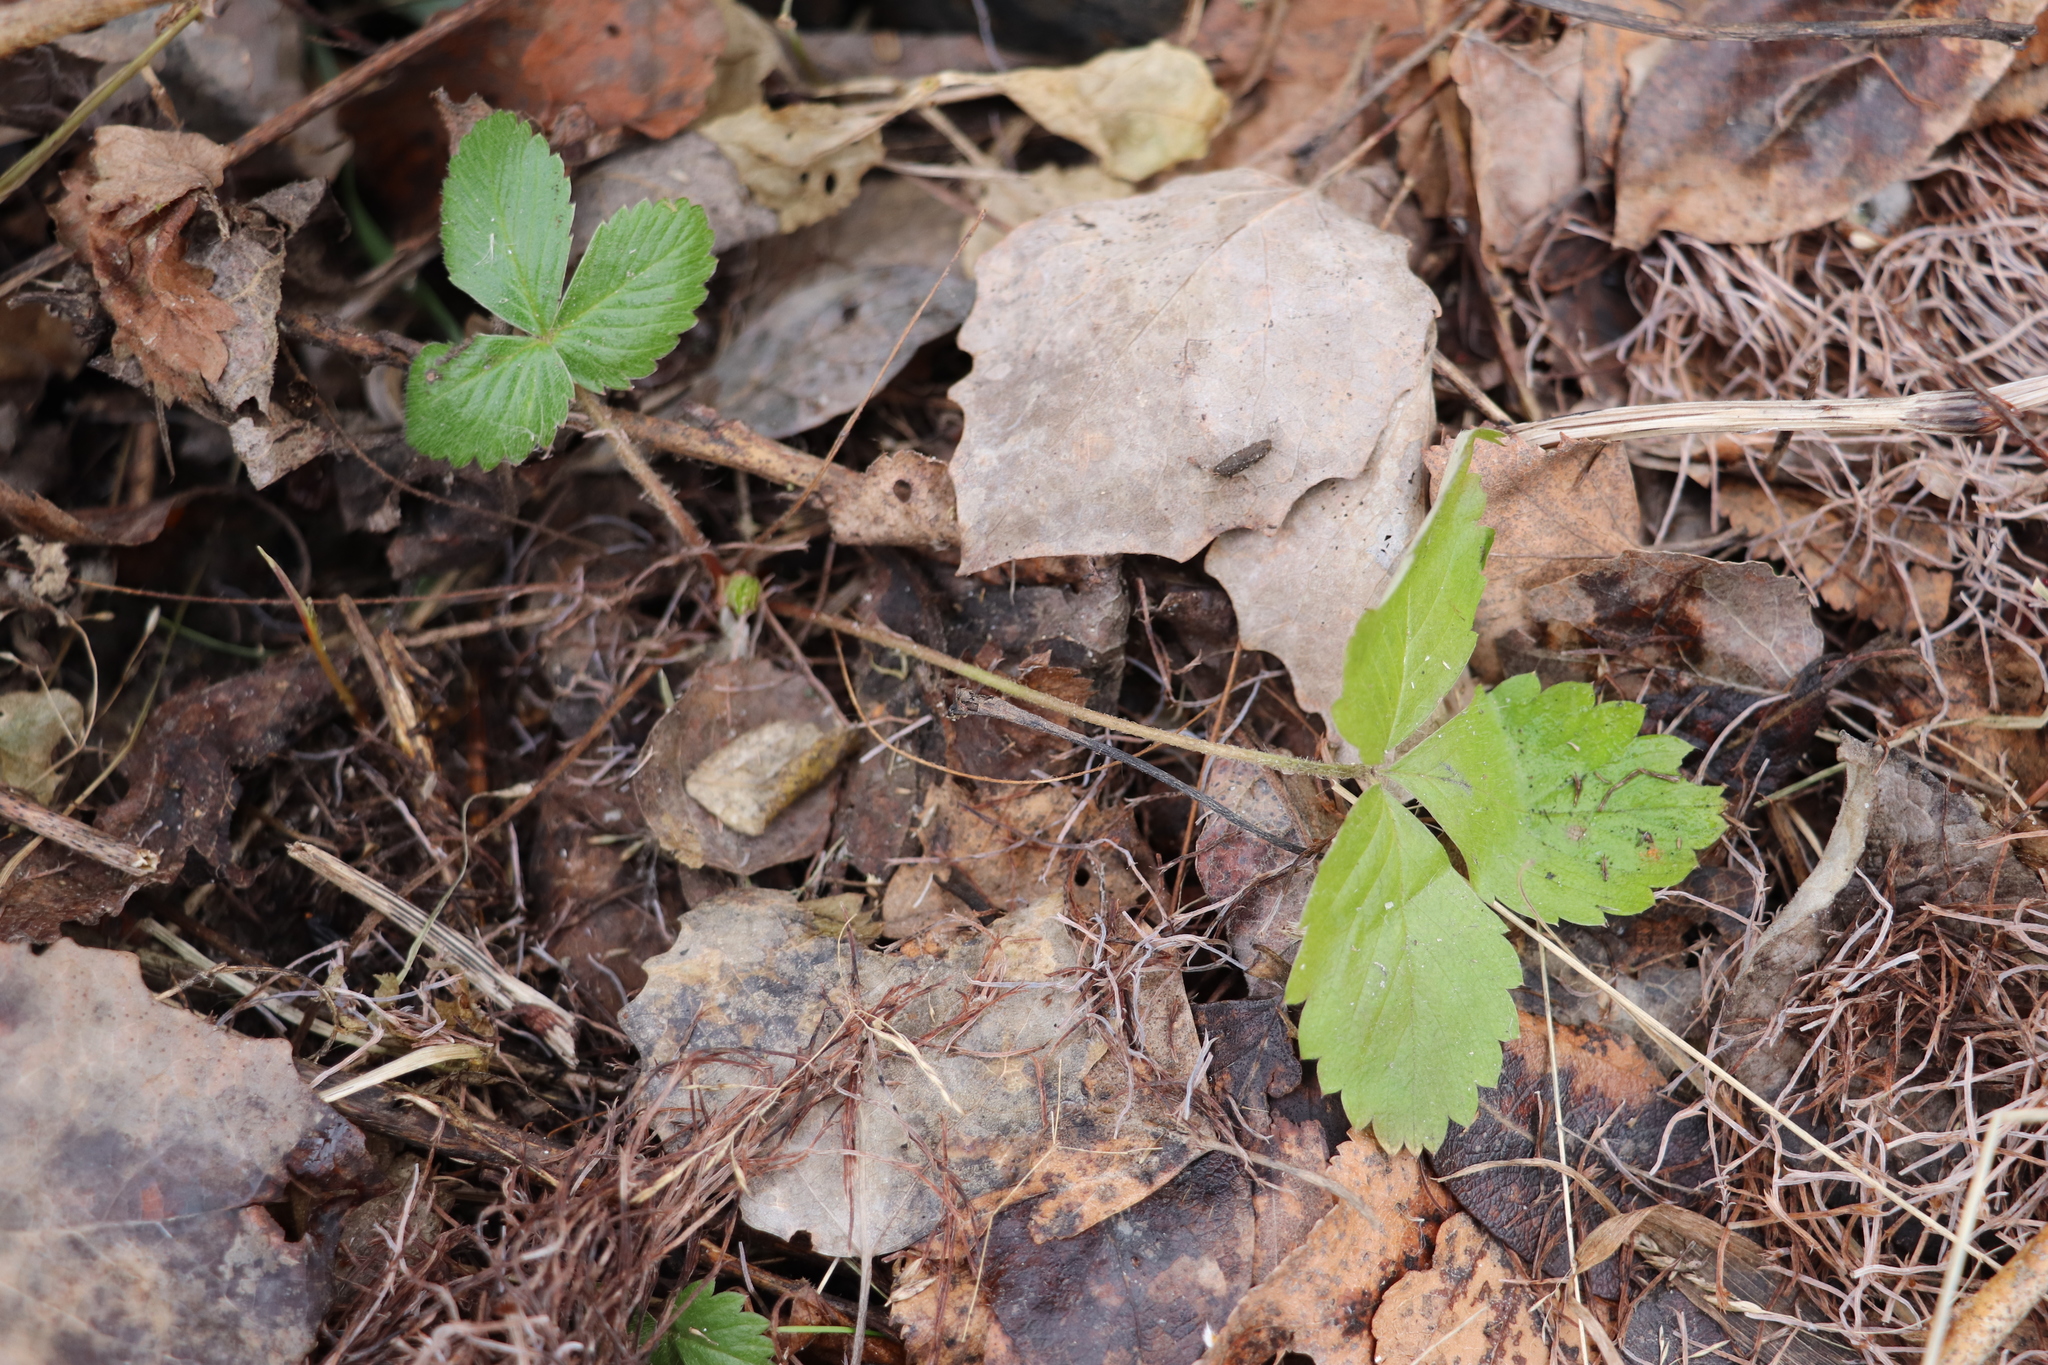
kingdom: Plantae
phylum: Tracheophyta
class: Magnoliopsida
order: Rosales
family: Rosaceae
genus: Fragaria
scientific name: Fragaria vesca
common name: Wild strawberry
